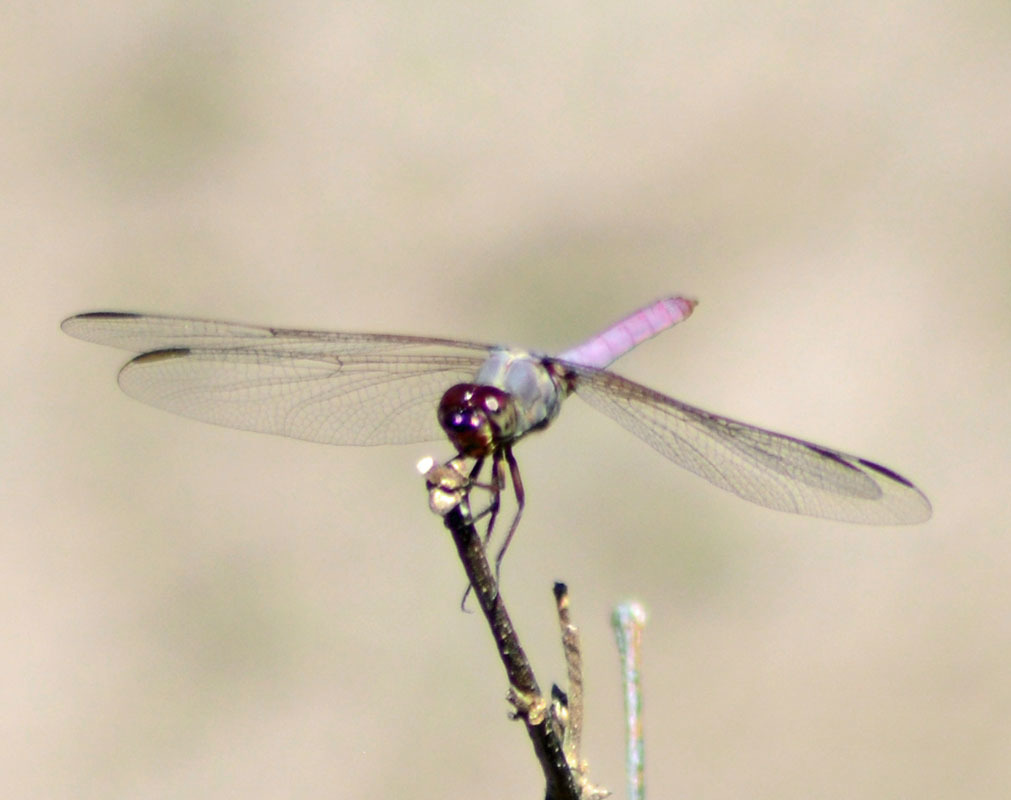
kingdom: Animalia
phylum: Arthropoda
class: Insecta
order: Odonata
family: Libellulidae
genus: Orthemis
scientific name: Orthemis ferruginea
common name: Roseate skimmer
